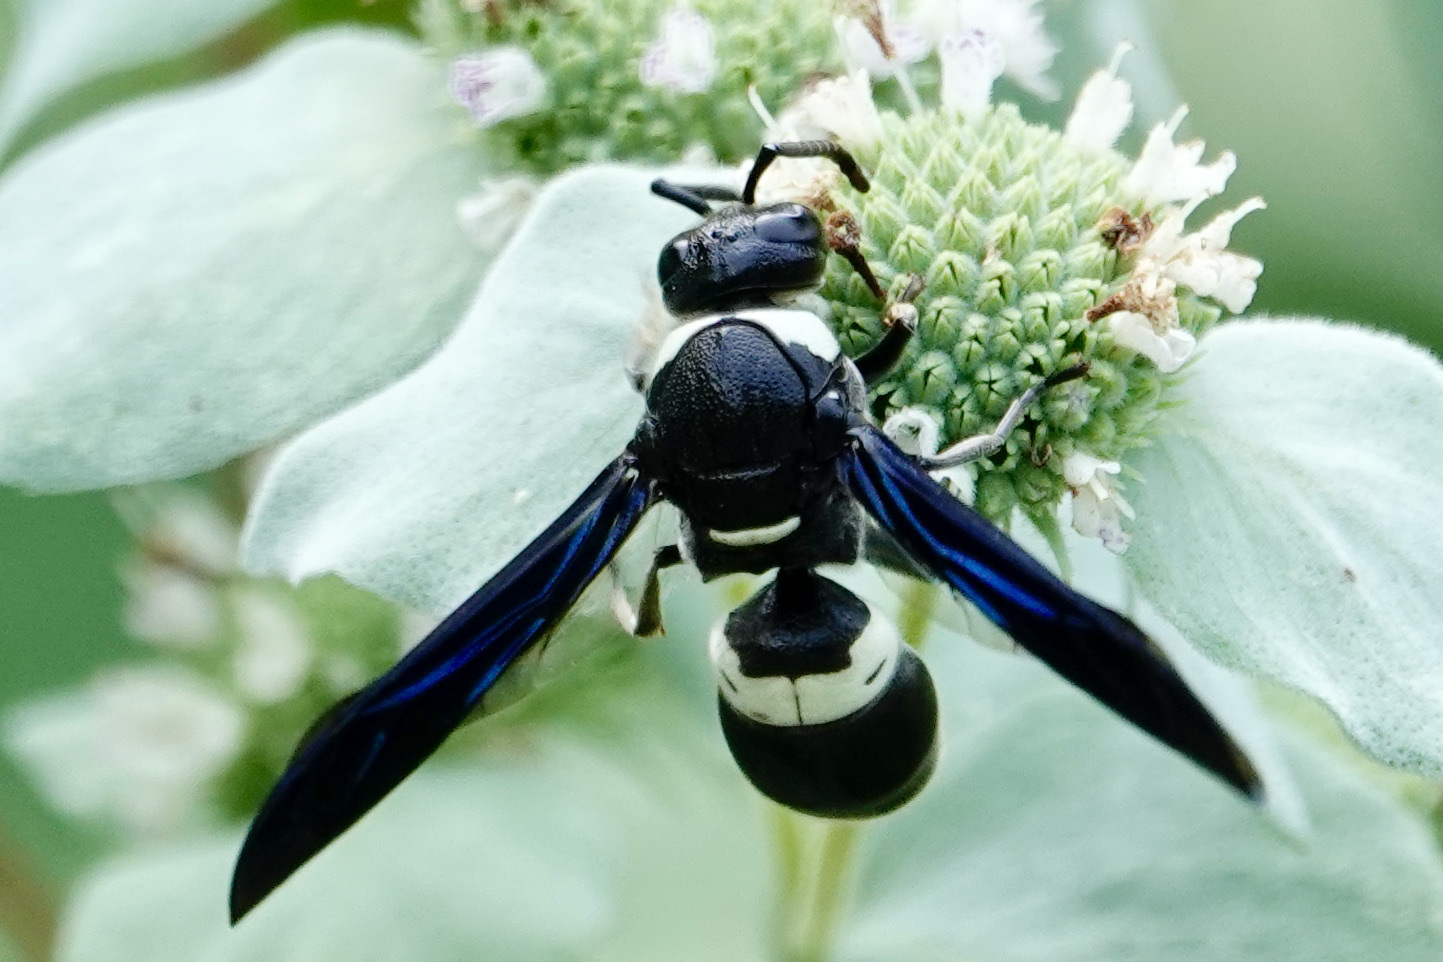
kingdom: Animalia
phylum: Arthropoda
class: Insecta
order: Hymenoptera
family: Eumenidae
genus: Monobia
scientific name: Monobia quadridens
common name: Four-toothed mason wasp
